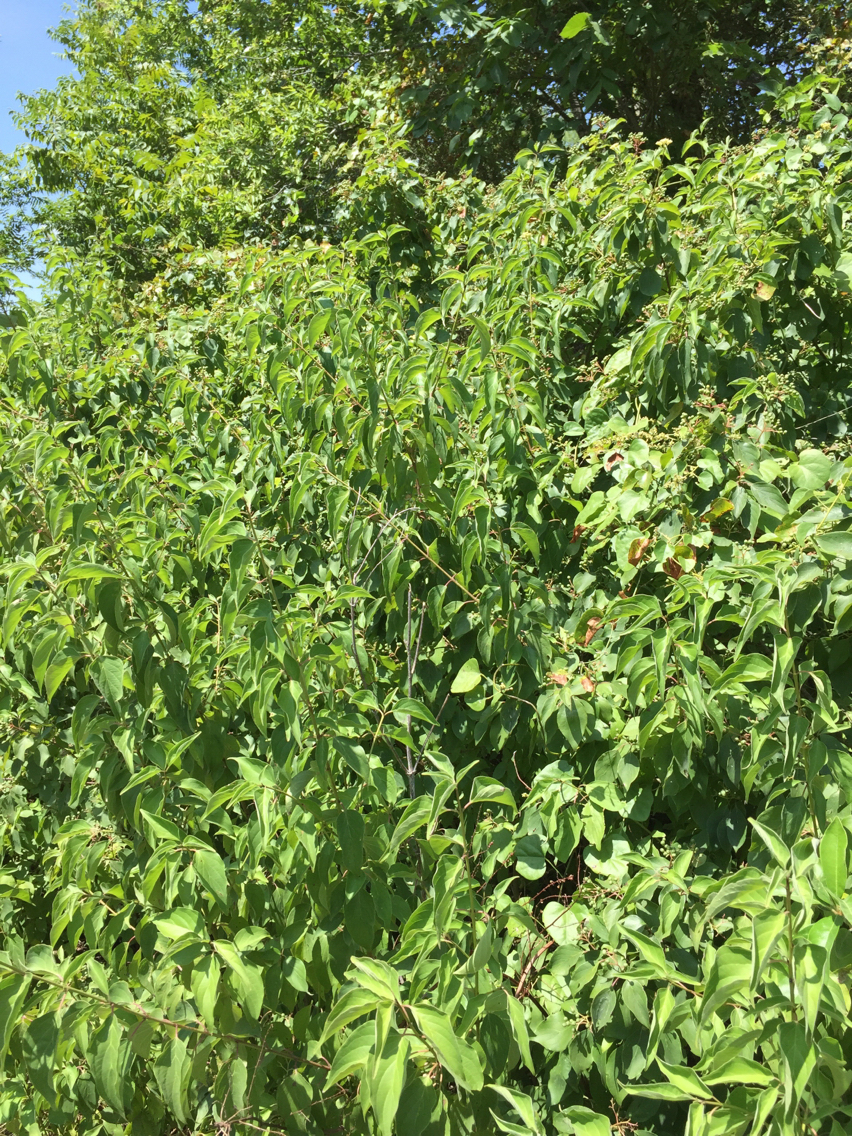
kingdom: Plantae
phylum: Tracheophyta
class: Magnoliopsida
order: Cornales
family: Cornaceae
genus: Cornus
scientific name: Cornus drummondii
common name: Rough-leaf dogwood
